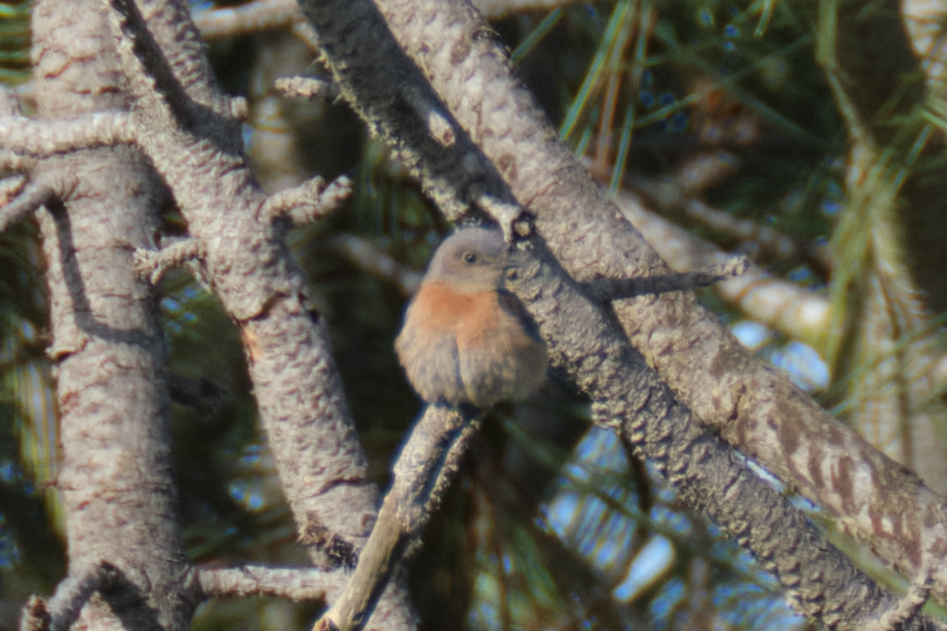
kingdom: Animalia
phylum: Chordata
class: Aves
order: Passeriformes
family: Turdidae
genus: Sialia
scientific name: Sialia mexicana
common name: Western bluebird
